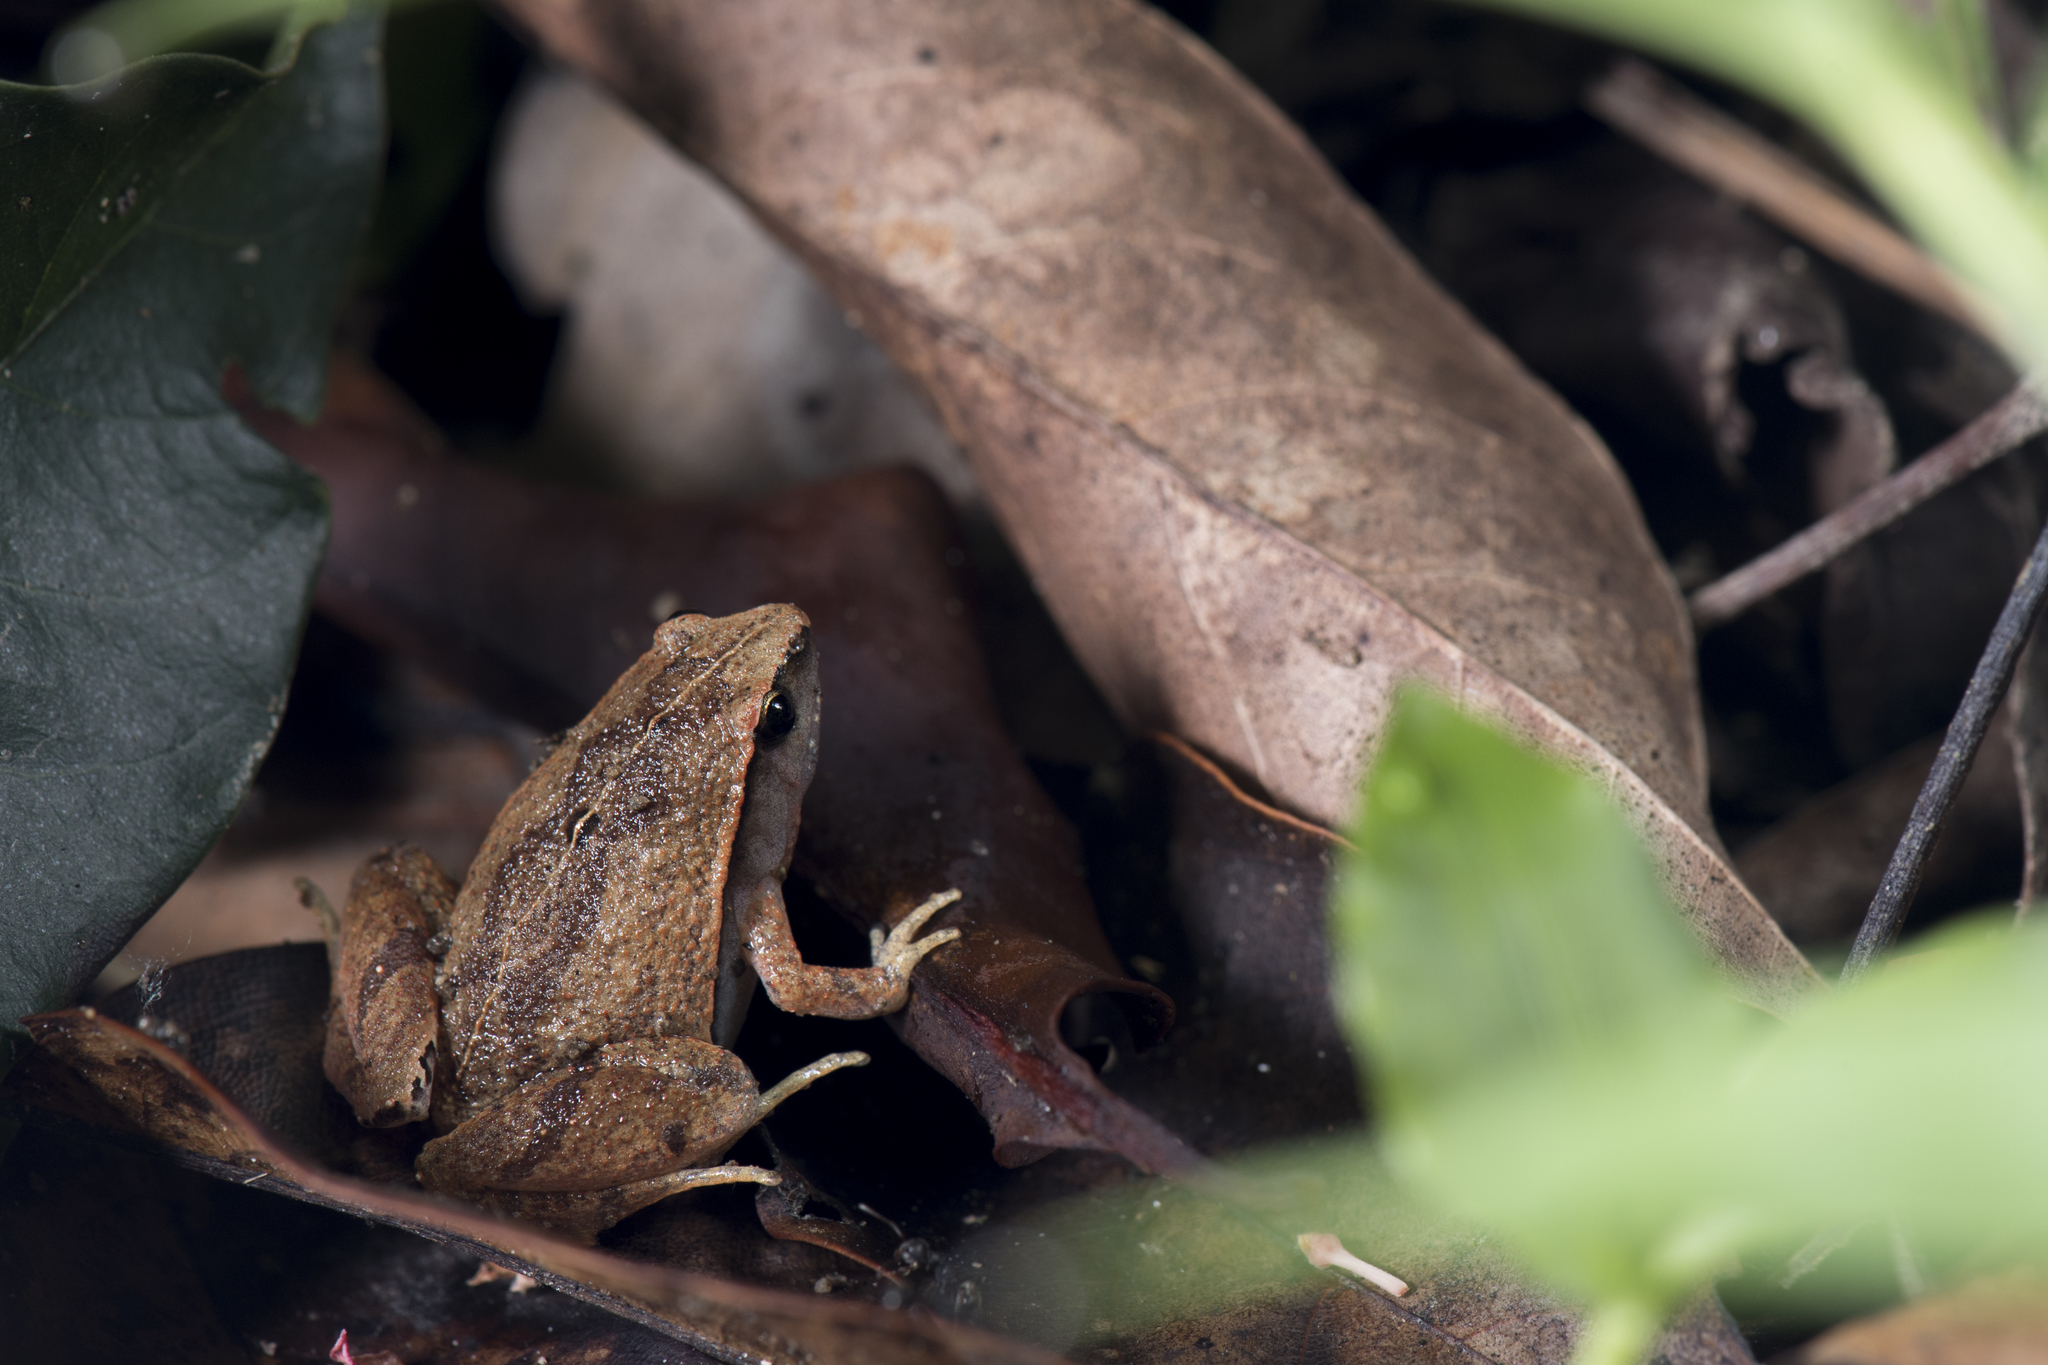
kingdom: Animalia
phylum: Chordata
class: Amphibia
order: Anura
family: Microhylidae
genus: Microhyla
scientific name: Microhyla heymonsi
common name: Taiwan rice frog,dark sided chorus frog
